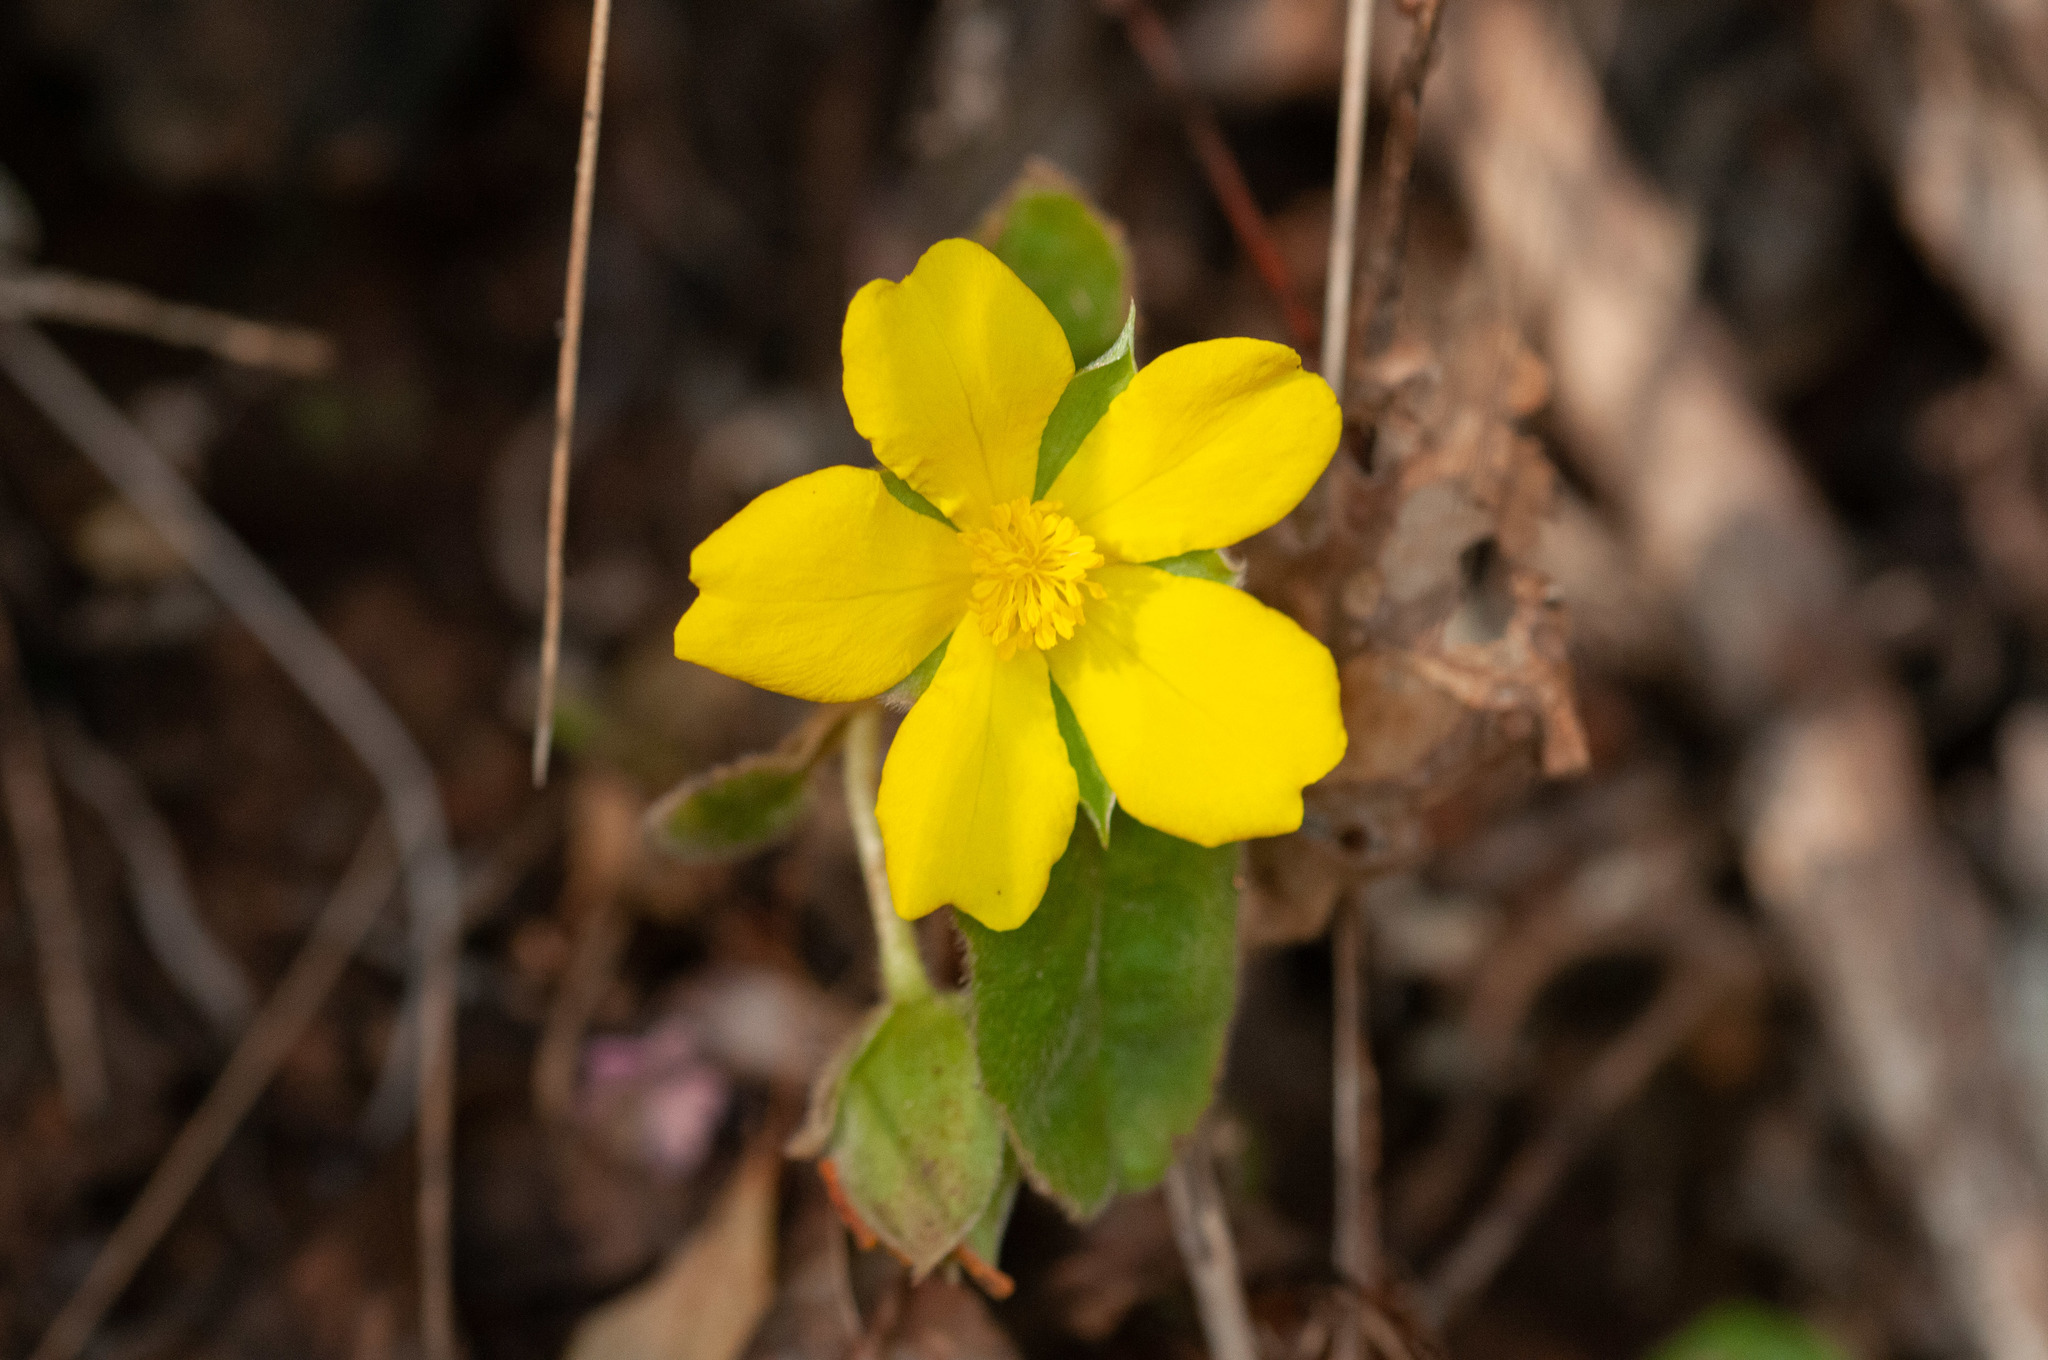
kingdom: Plantae
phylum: Tracheophyta
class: Magnoliopsida
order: Dilleniales
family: Dilleniaceae
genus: Hibbertia
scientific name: Hibbertia dentata
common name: Trailing guinea-flower
